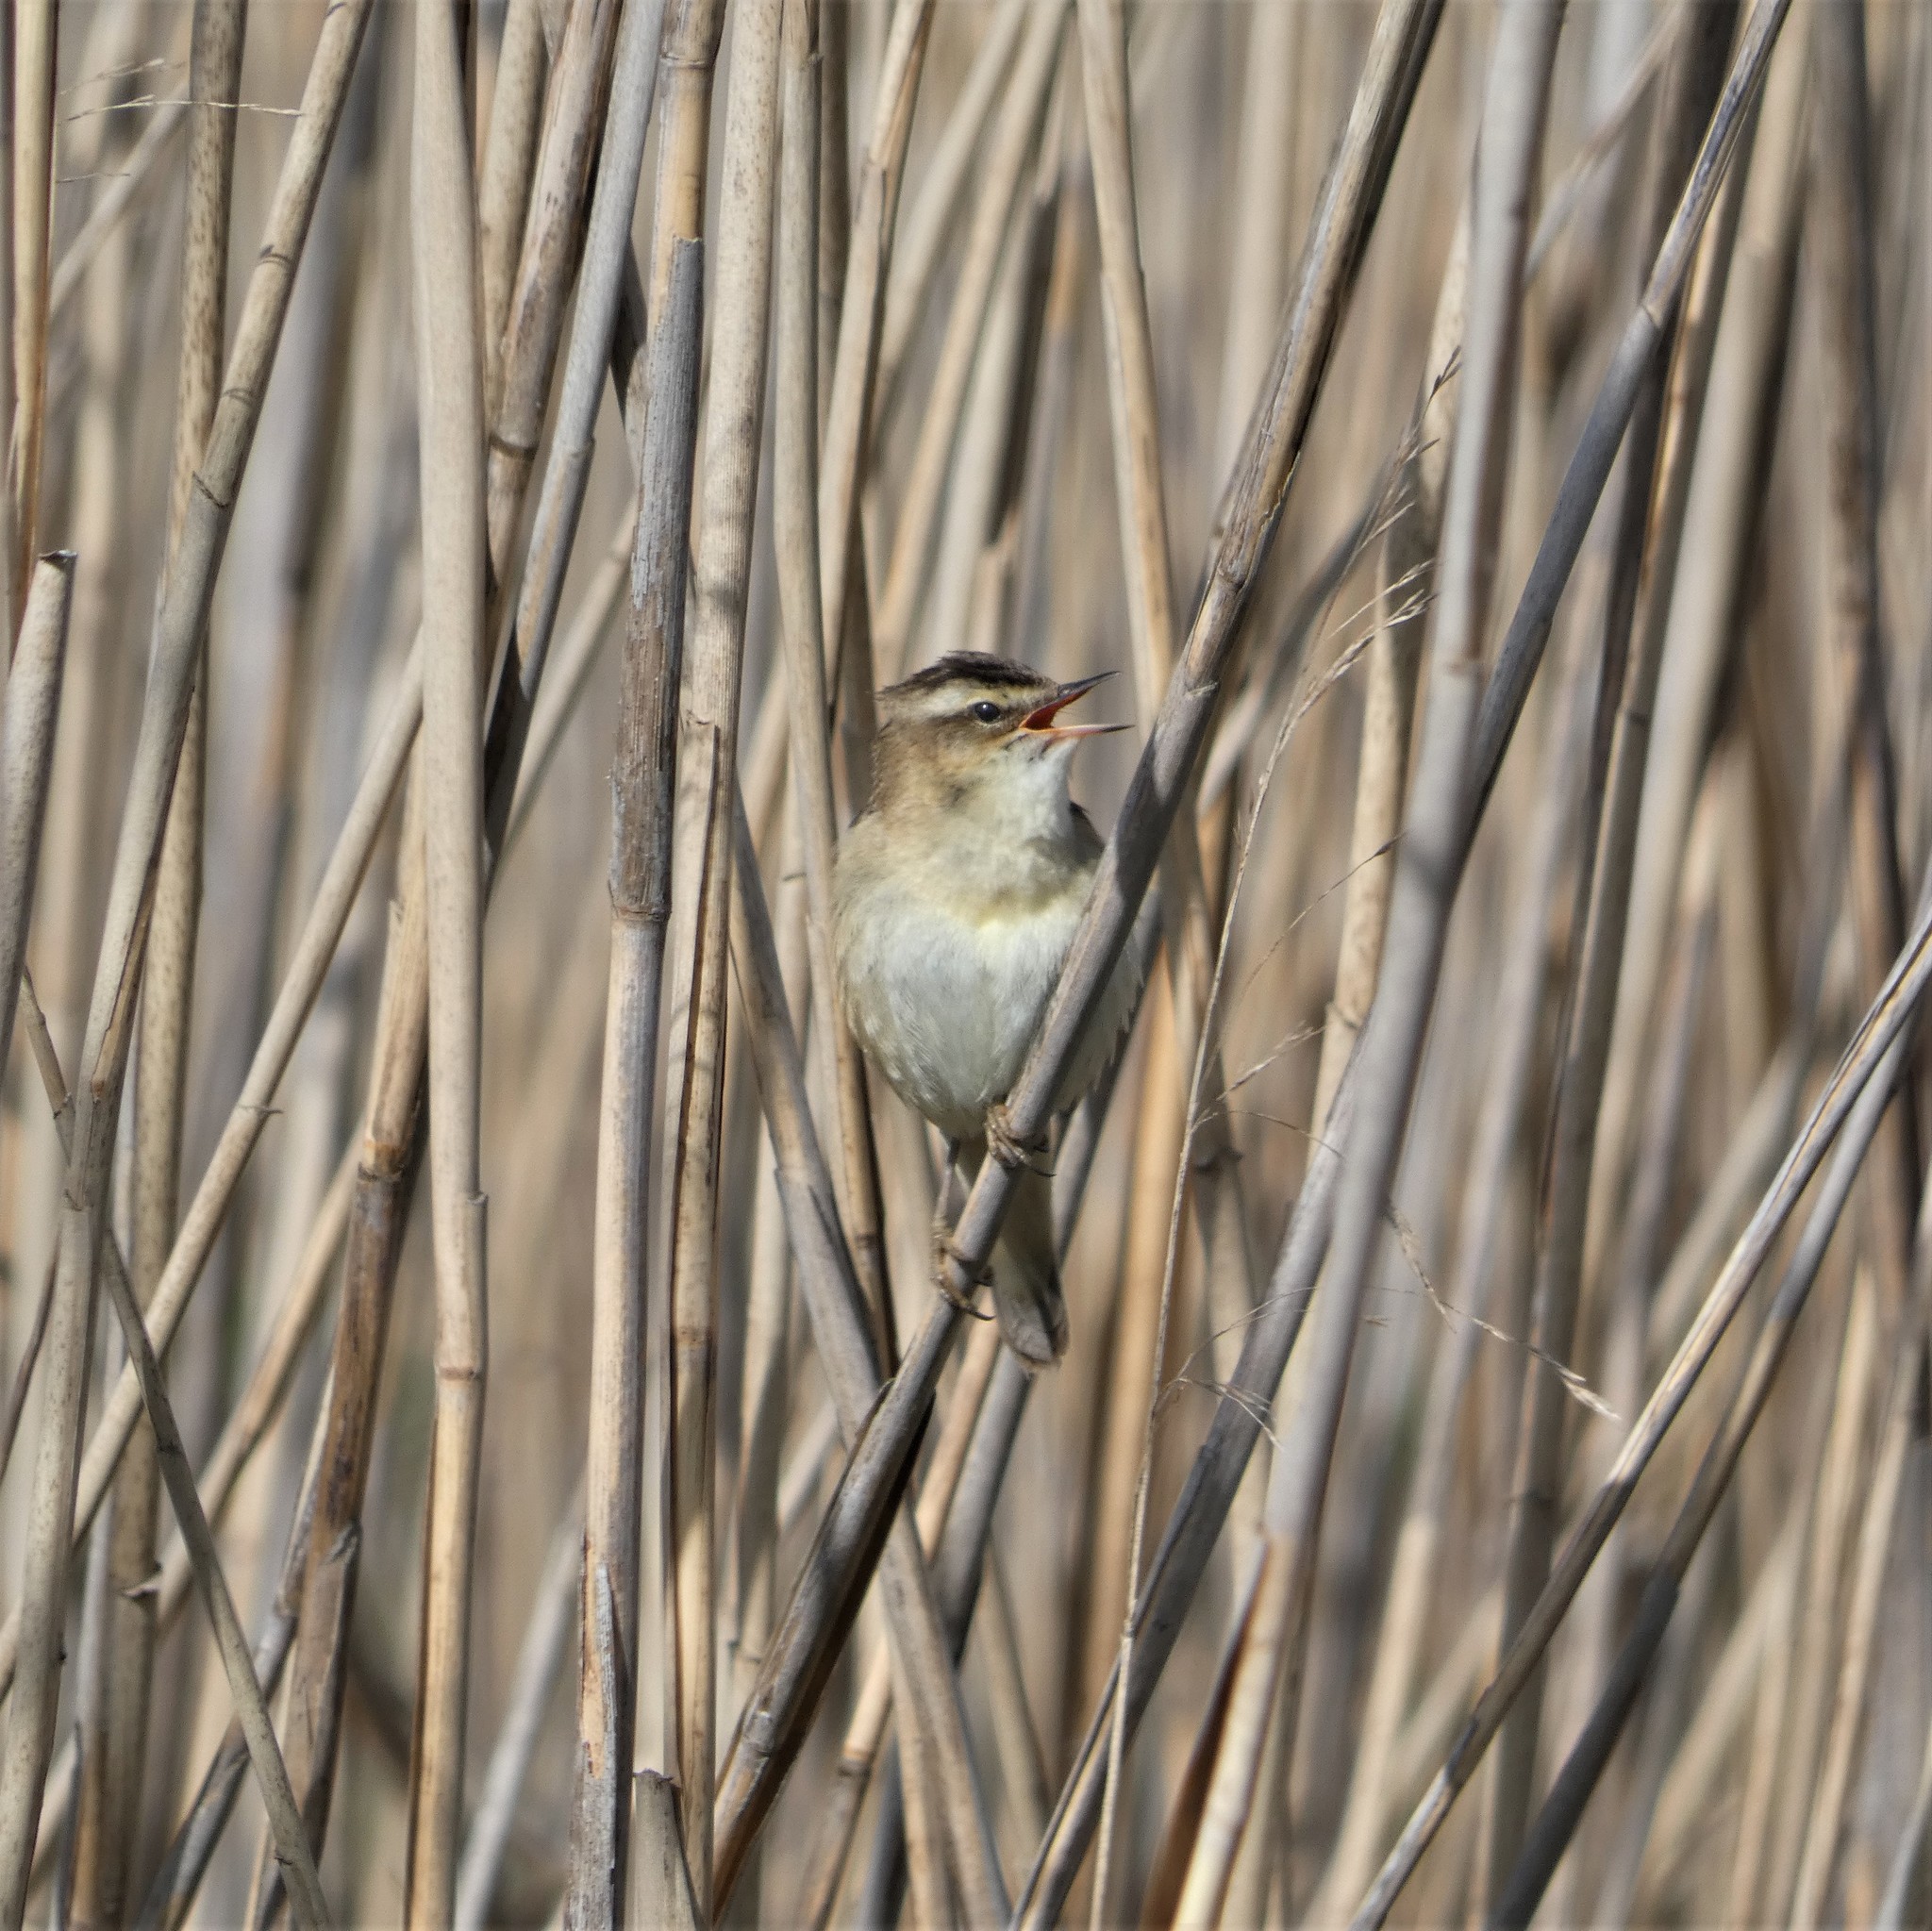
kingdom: Animalia
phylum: Chordata
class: Aves
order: Passeriformes
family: Acrocephalidae
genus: Acrocephalus
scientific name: Acrocephalus schoenobaenus
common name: Sedge warbler
